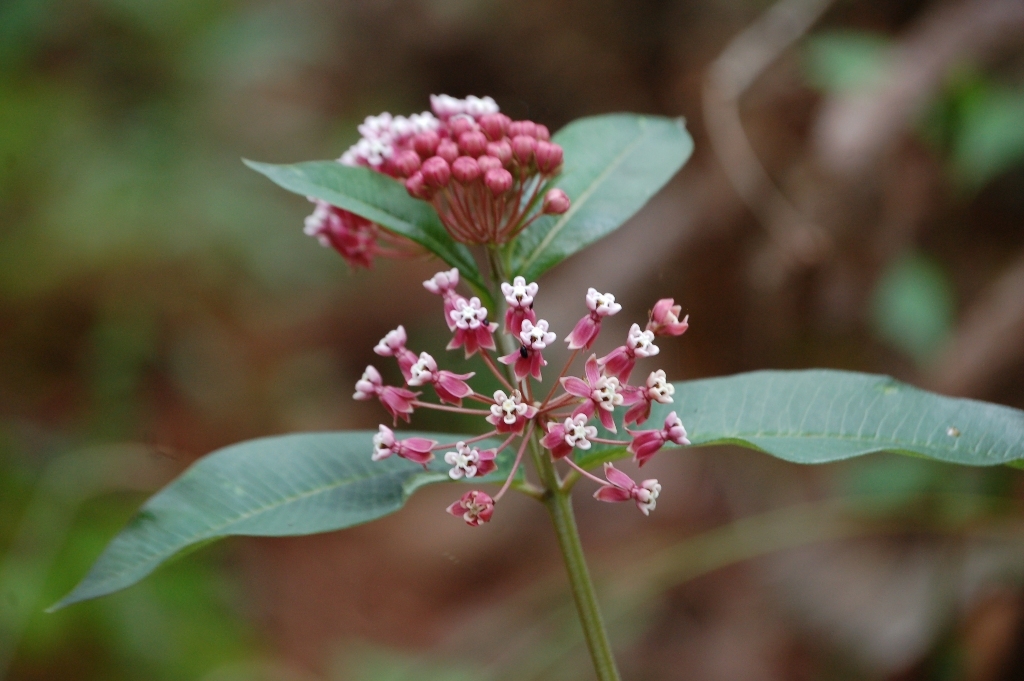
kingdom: Plantae
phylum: Tracheophyta
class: Magnoliopsida
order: Gentianales
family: Apocynaceae
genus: Asclepias
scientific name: Asclepias pellucida
